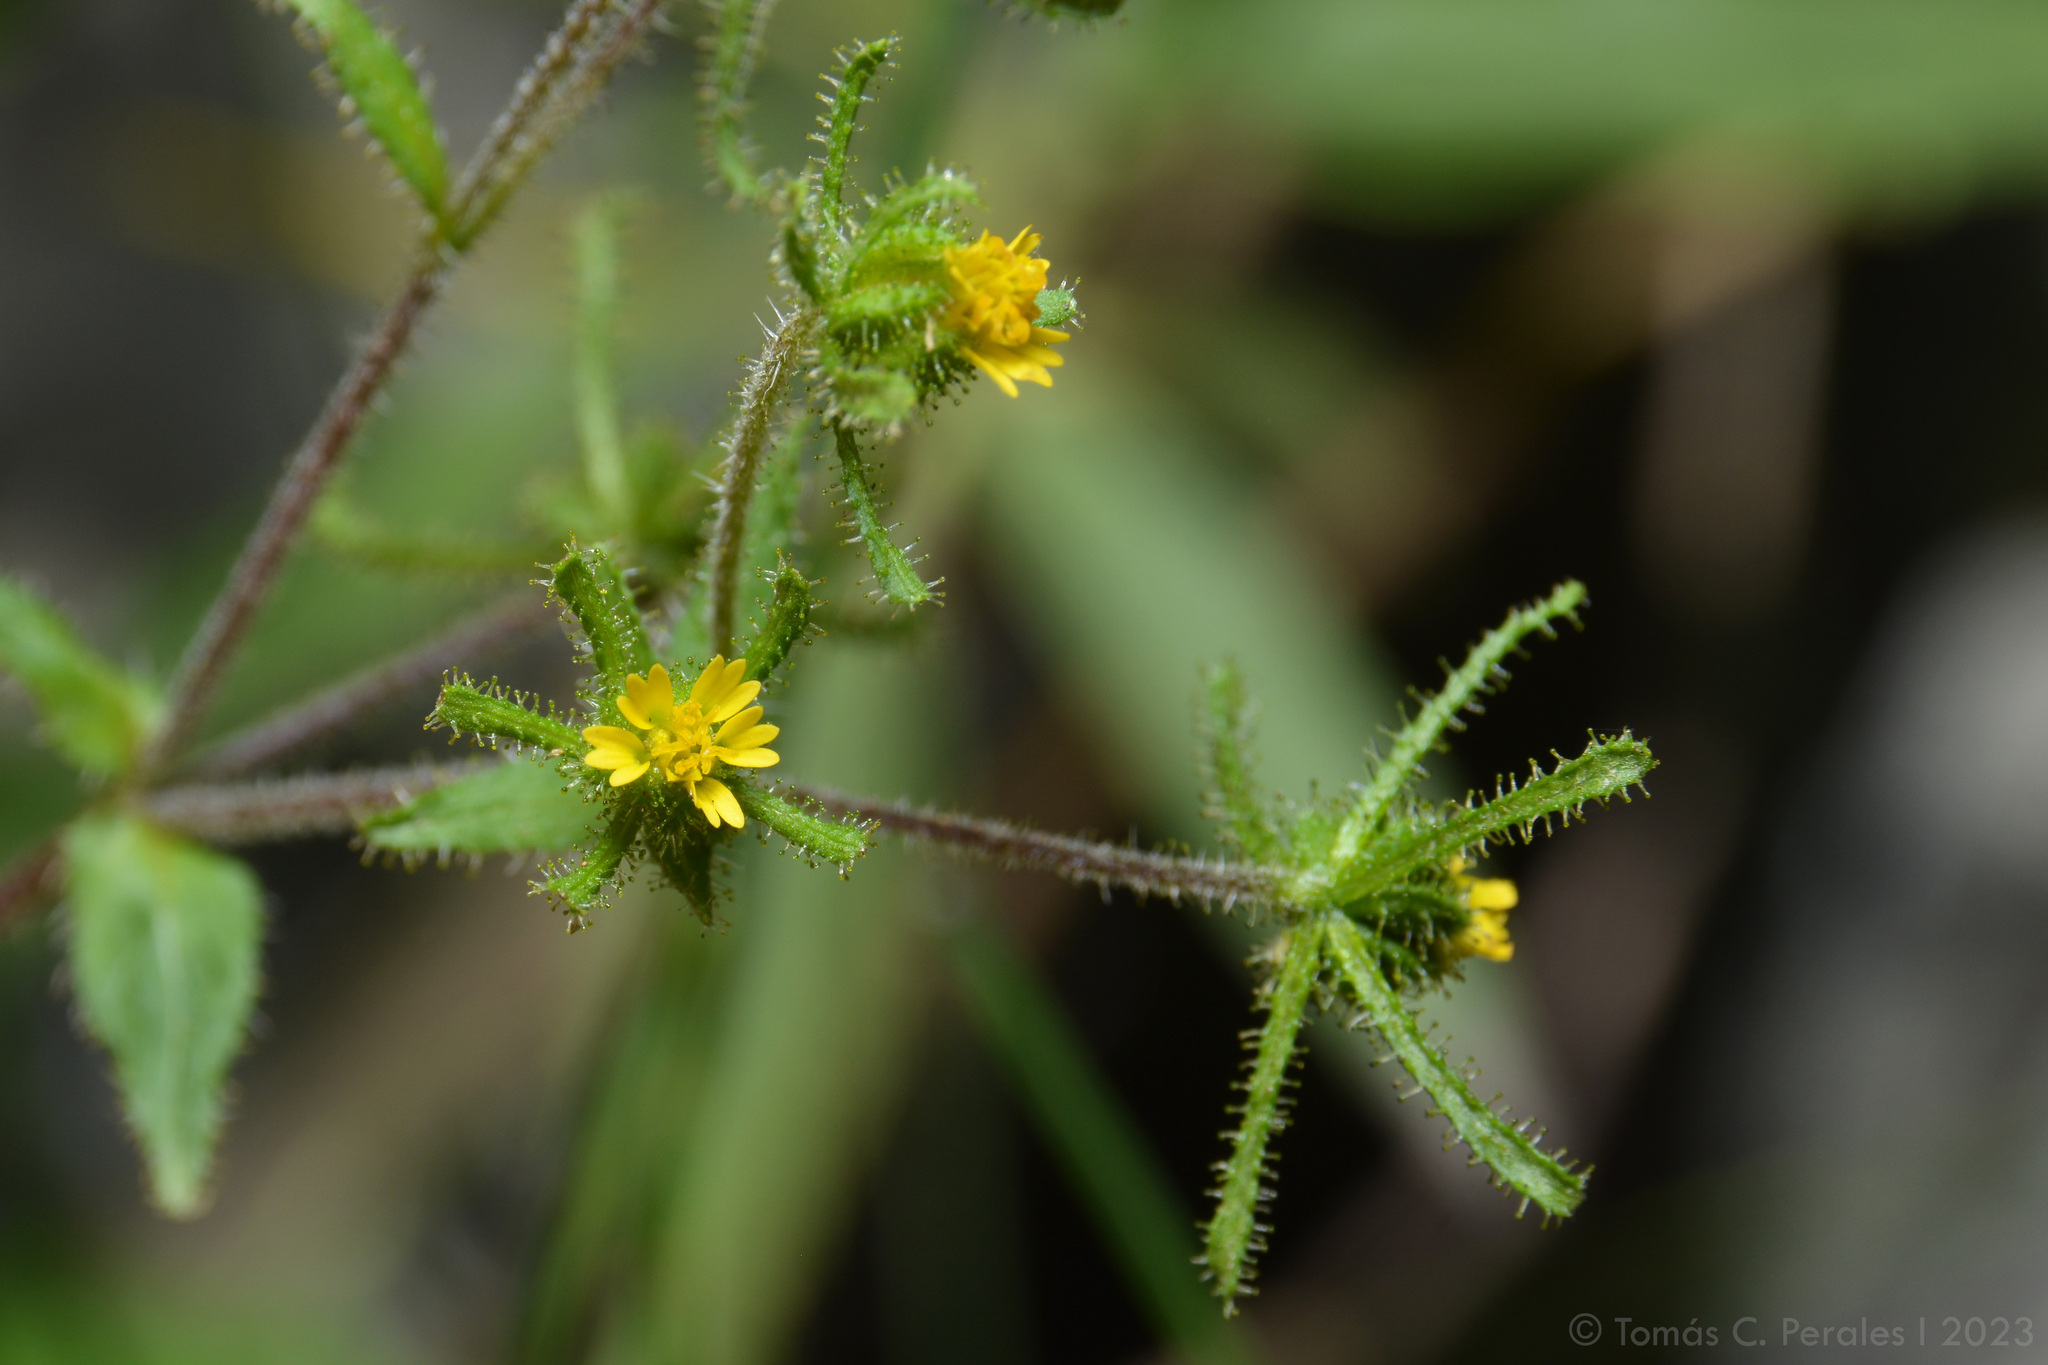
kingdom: Plantae
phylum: Tracheophyta
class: Magnoliopsida
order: Asterales
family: Asteraceae
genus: Sigesbeckia
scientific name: Sigesbeckia jorullensis
